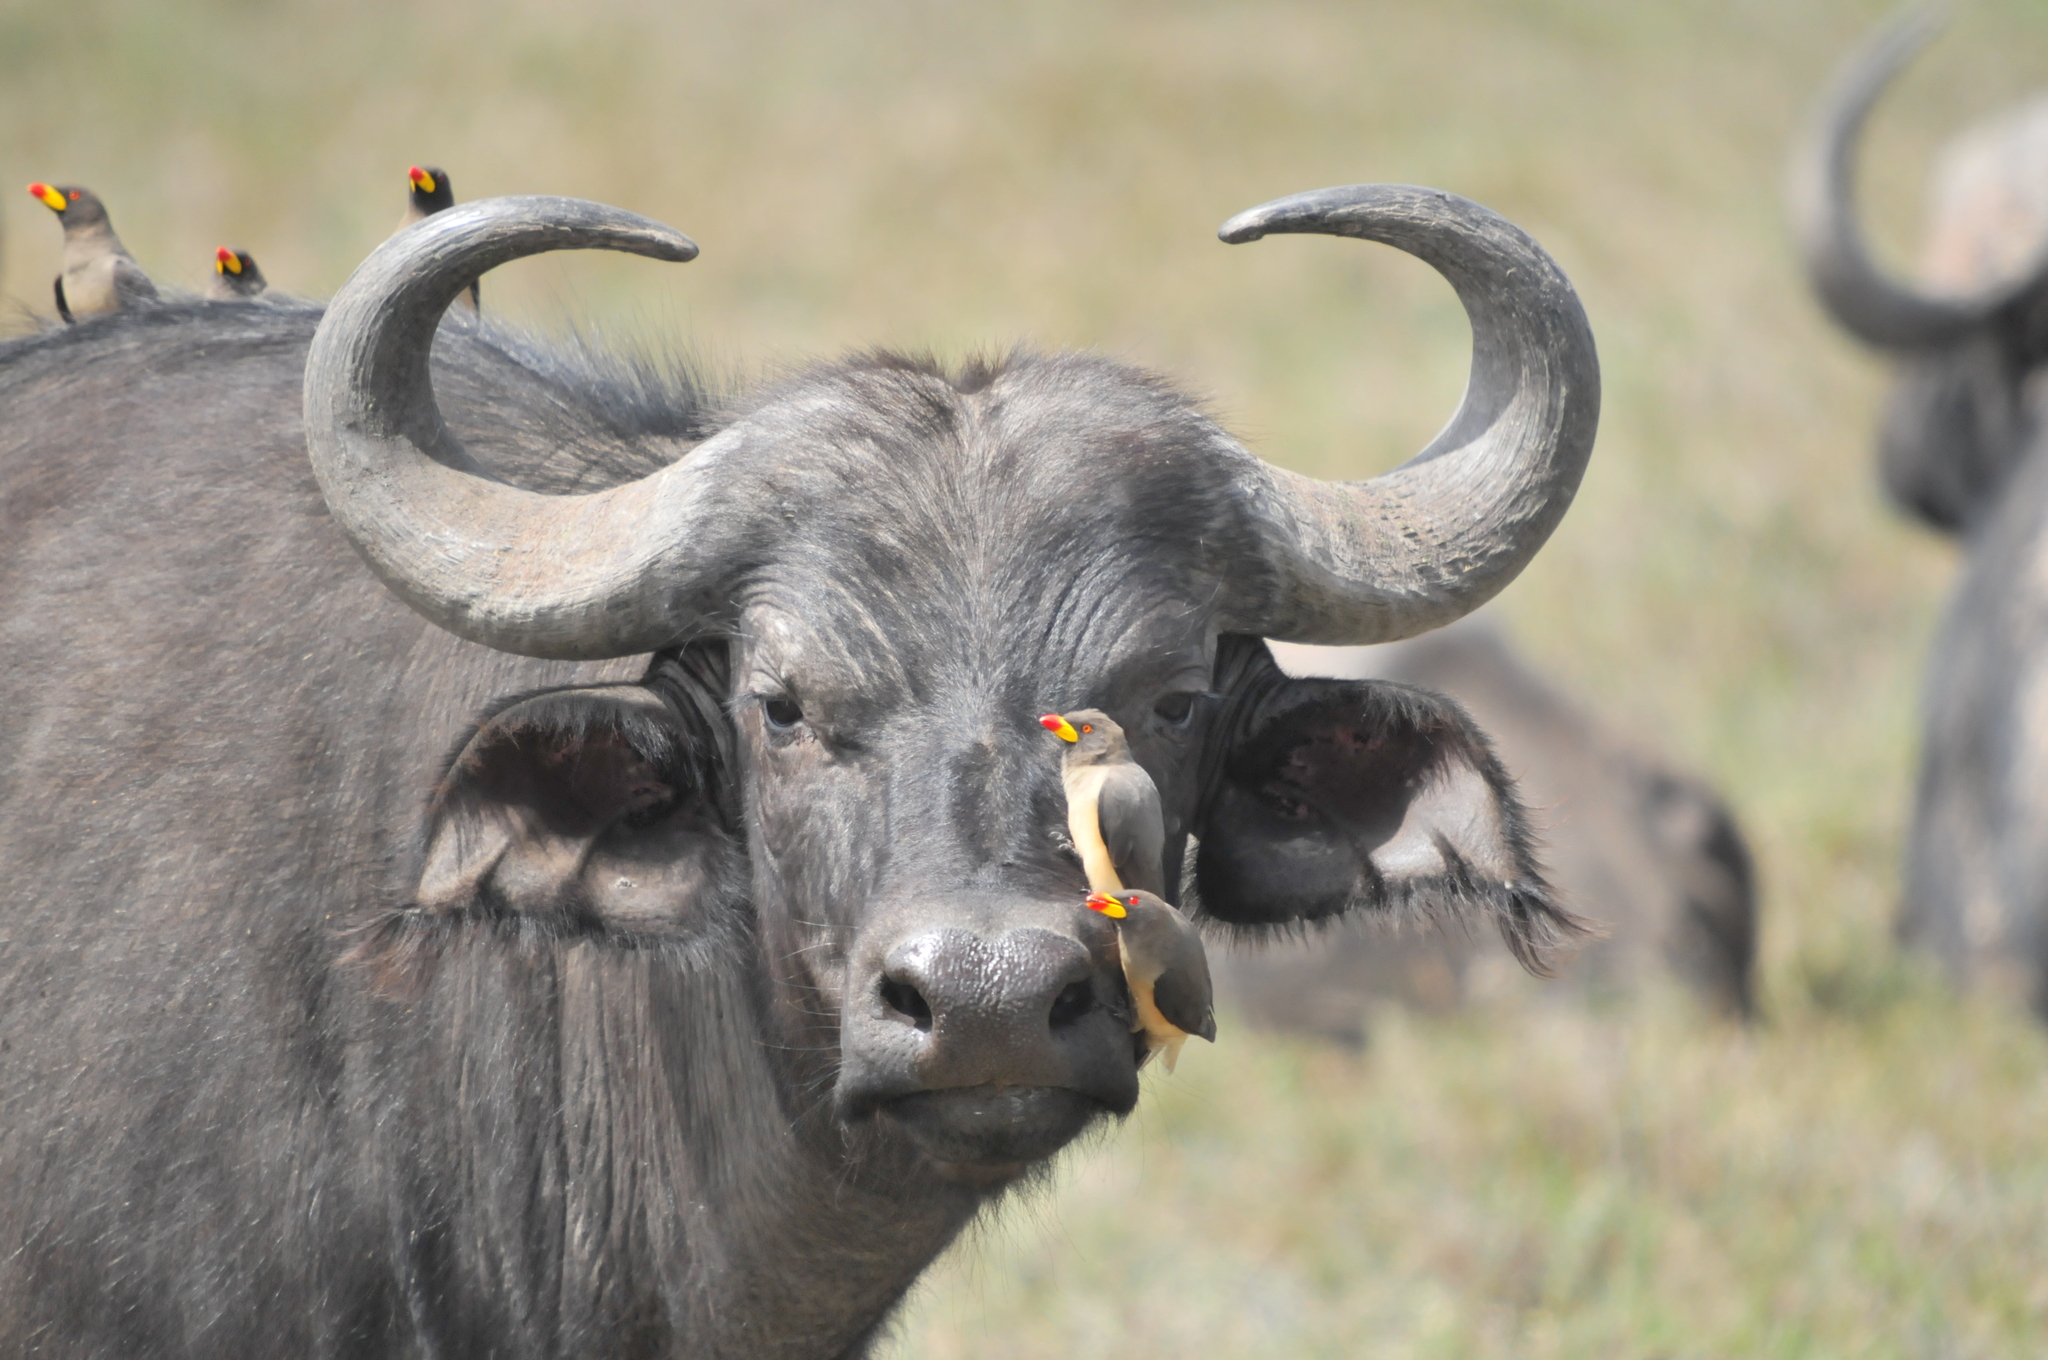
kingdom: Animalia
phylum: Chordata
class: Mammalia
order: Artiodactyla
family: Bovidae
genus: Syncerus
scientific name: Syncerus caffer
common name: African buffalo
